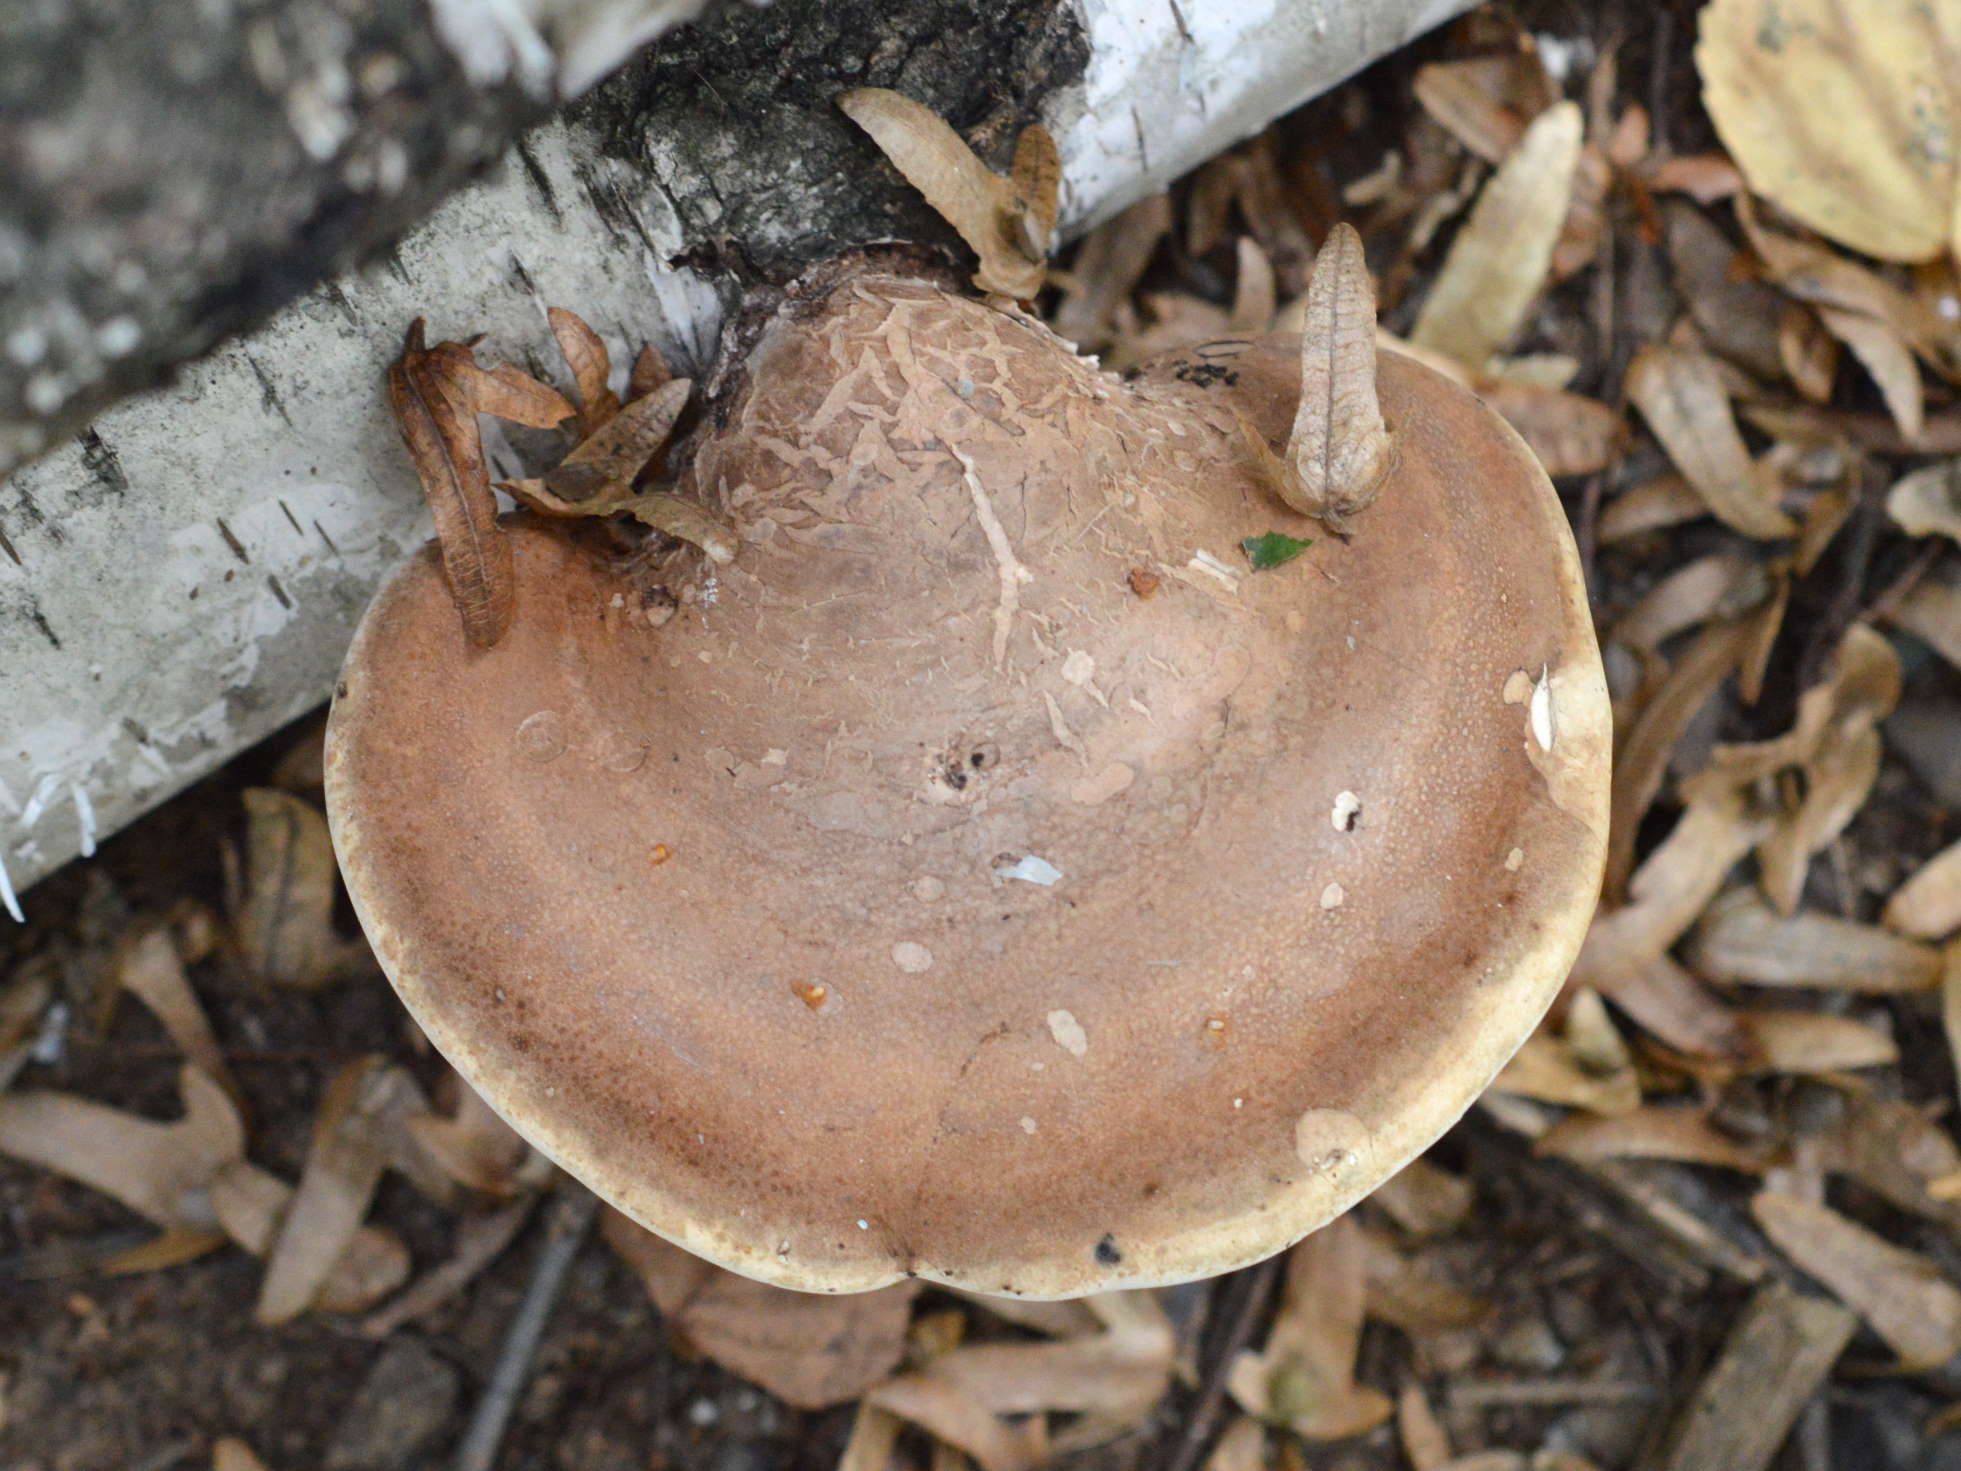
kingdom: Fungi
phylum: Basidiomycota
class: Agaricomycetes
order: Polyporales
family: Fomitopsidaceae
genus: Fomitopsis
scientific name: Fomitopsis betulina
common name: Birch polypore
